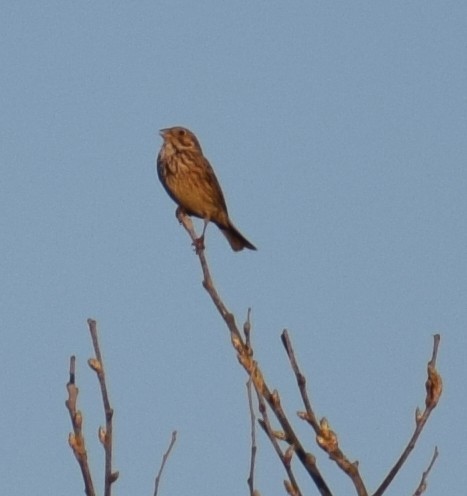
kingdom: Animalia
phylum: Chordata
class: Aves
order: Passeriformes
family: Emberizidae
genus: Emberiza
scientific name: Emberiza calandra
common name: Corn bunting
